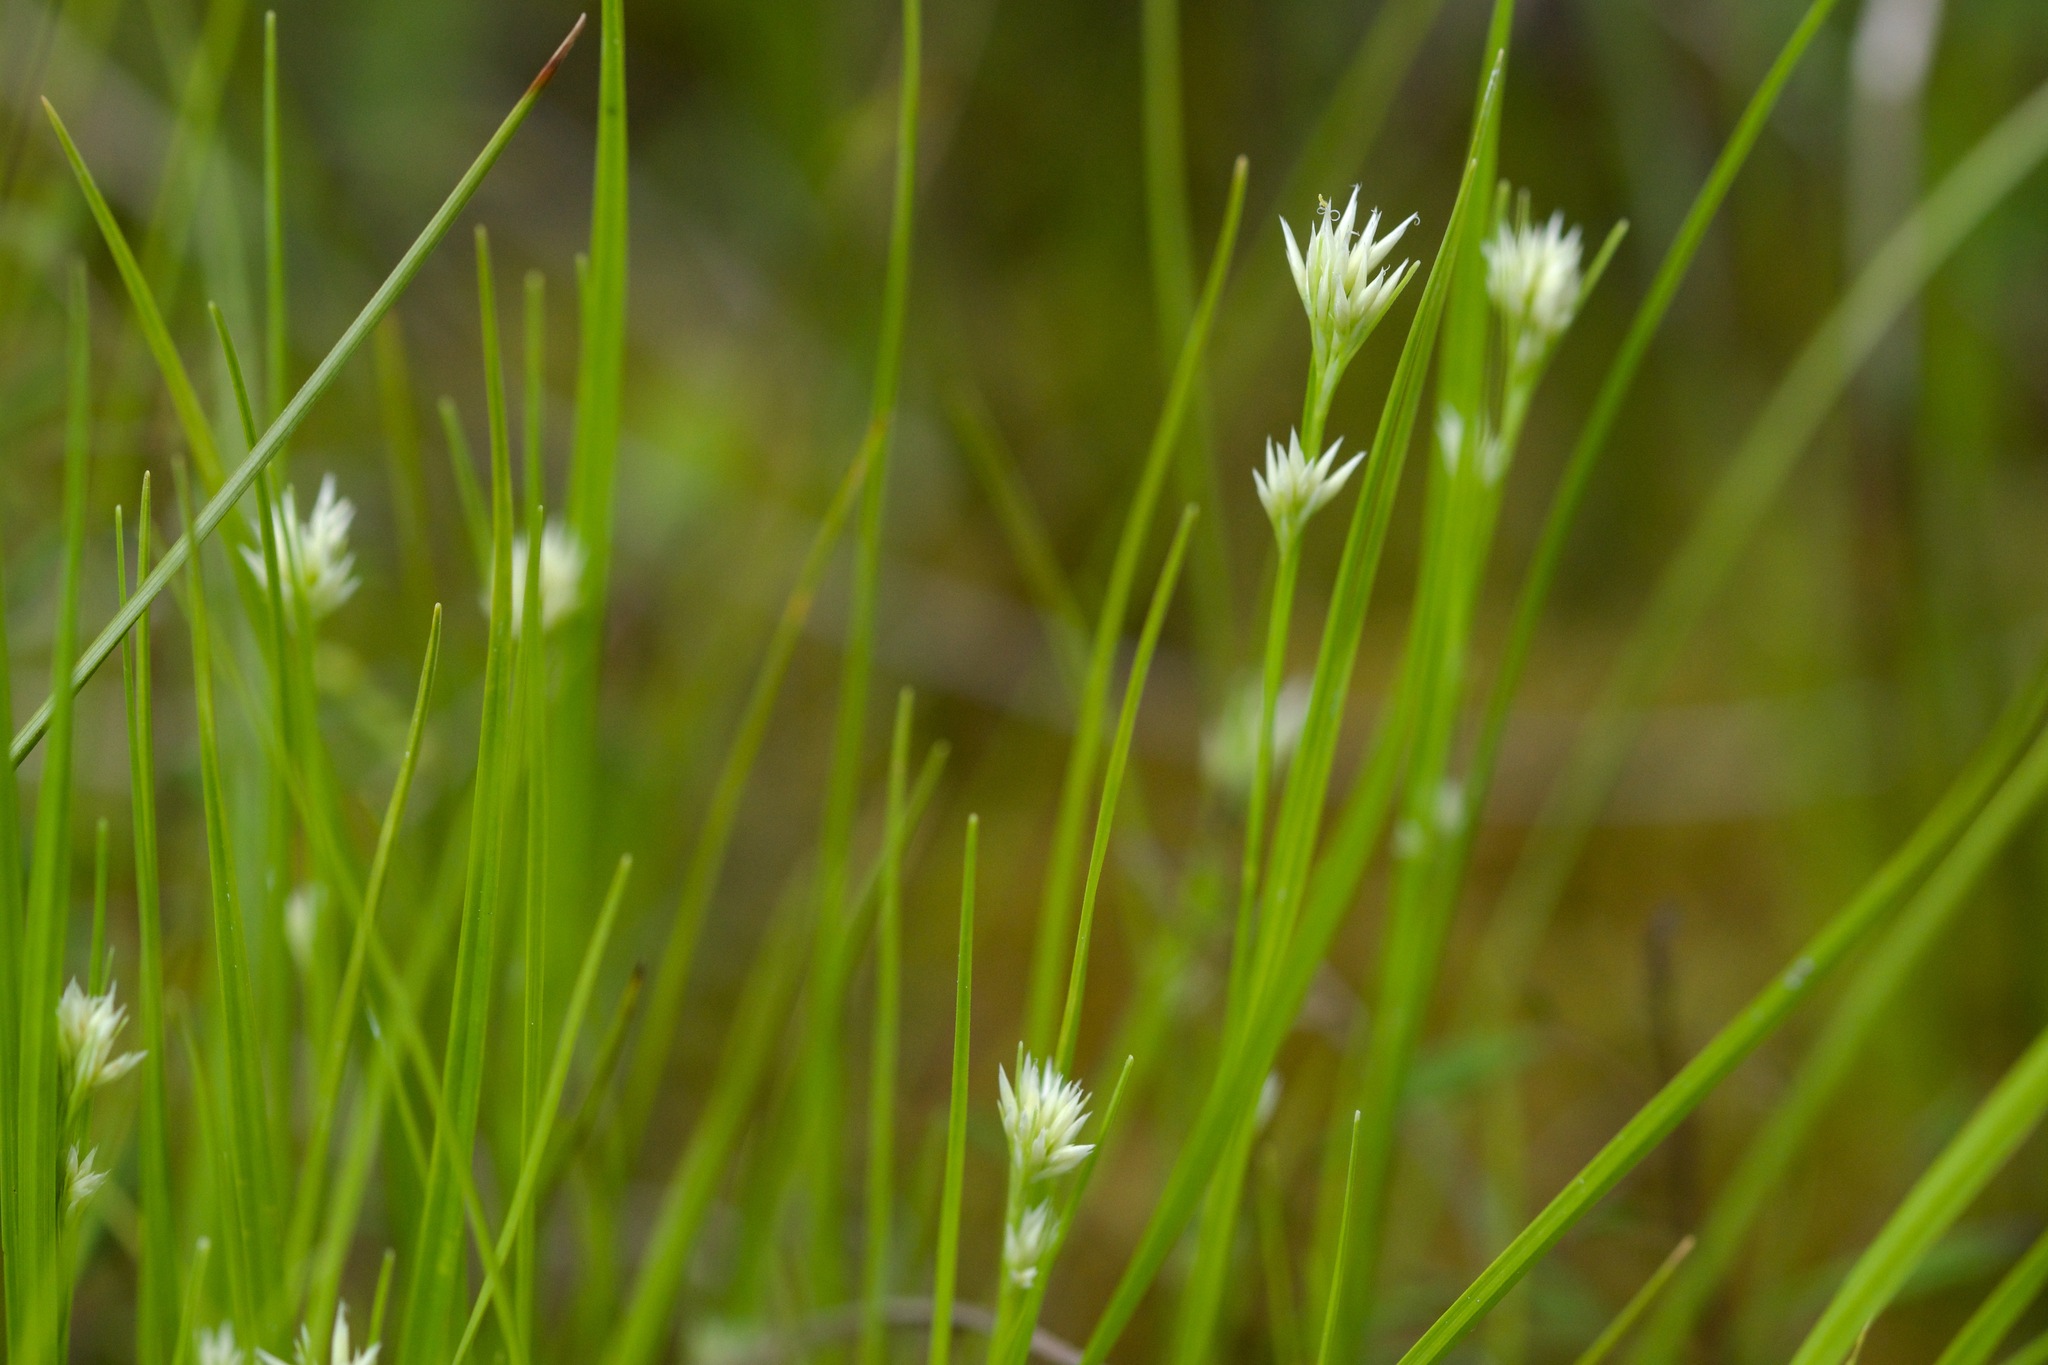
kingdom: Plantae
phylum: Tracheophyta
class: Liliopsida
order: Poales
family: Cyperaceae
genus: Rhynchospora
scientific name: Rhynchospora alba
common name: White beak-sedge
